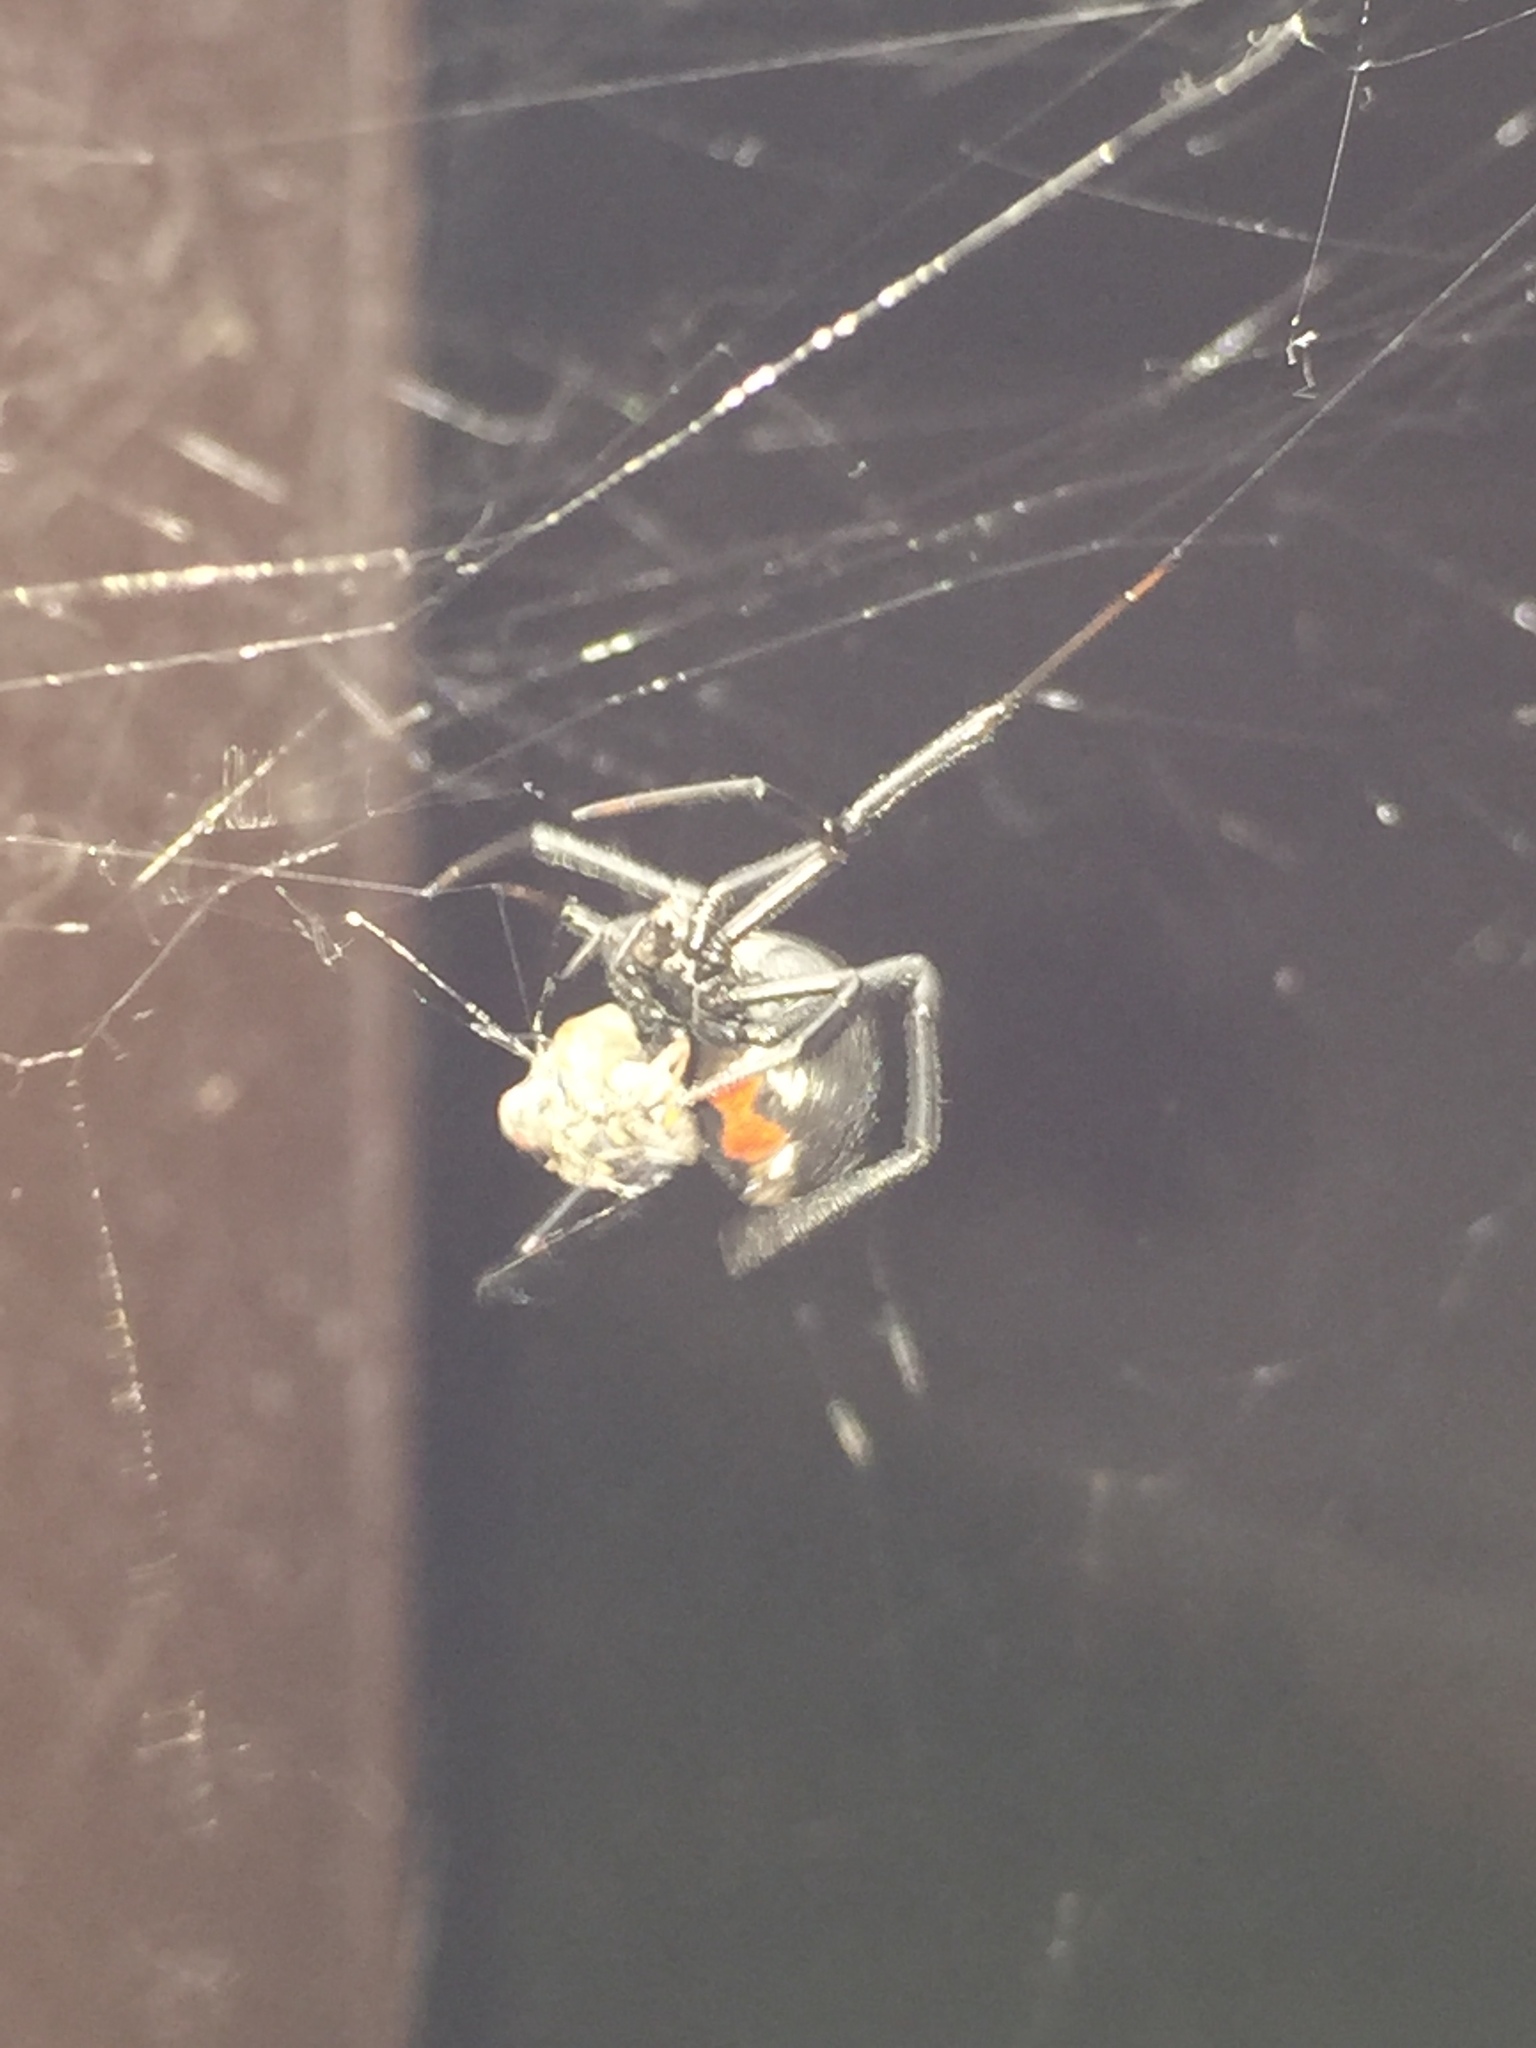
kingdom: Animalia
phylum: Arthropoda
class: Arachnida
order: Araneae
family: Theridiidae
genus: Latrodectus
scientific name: Latrodectus hesperus
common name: Western black widow
